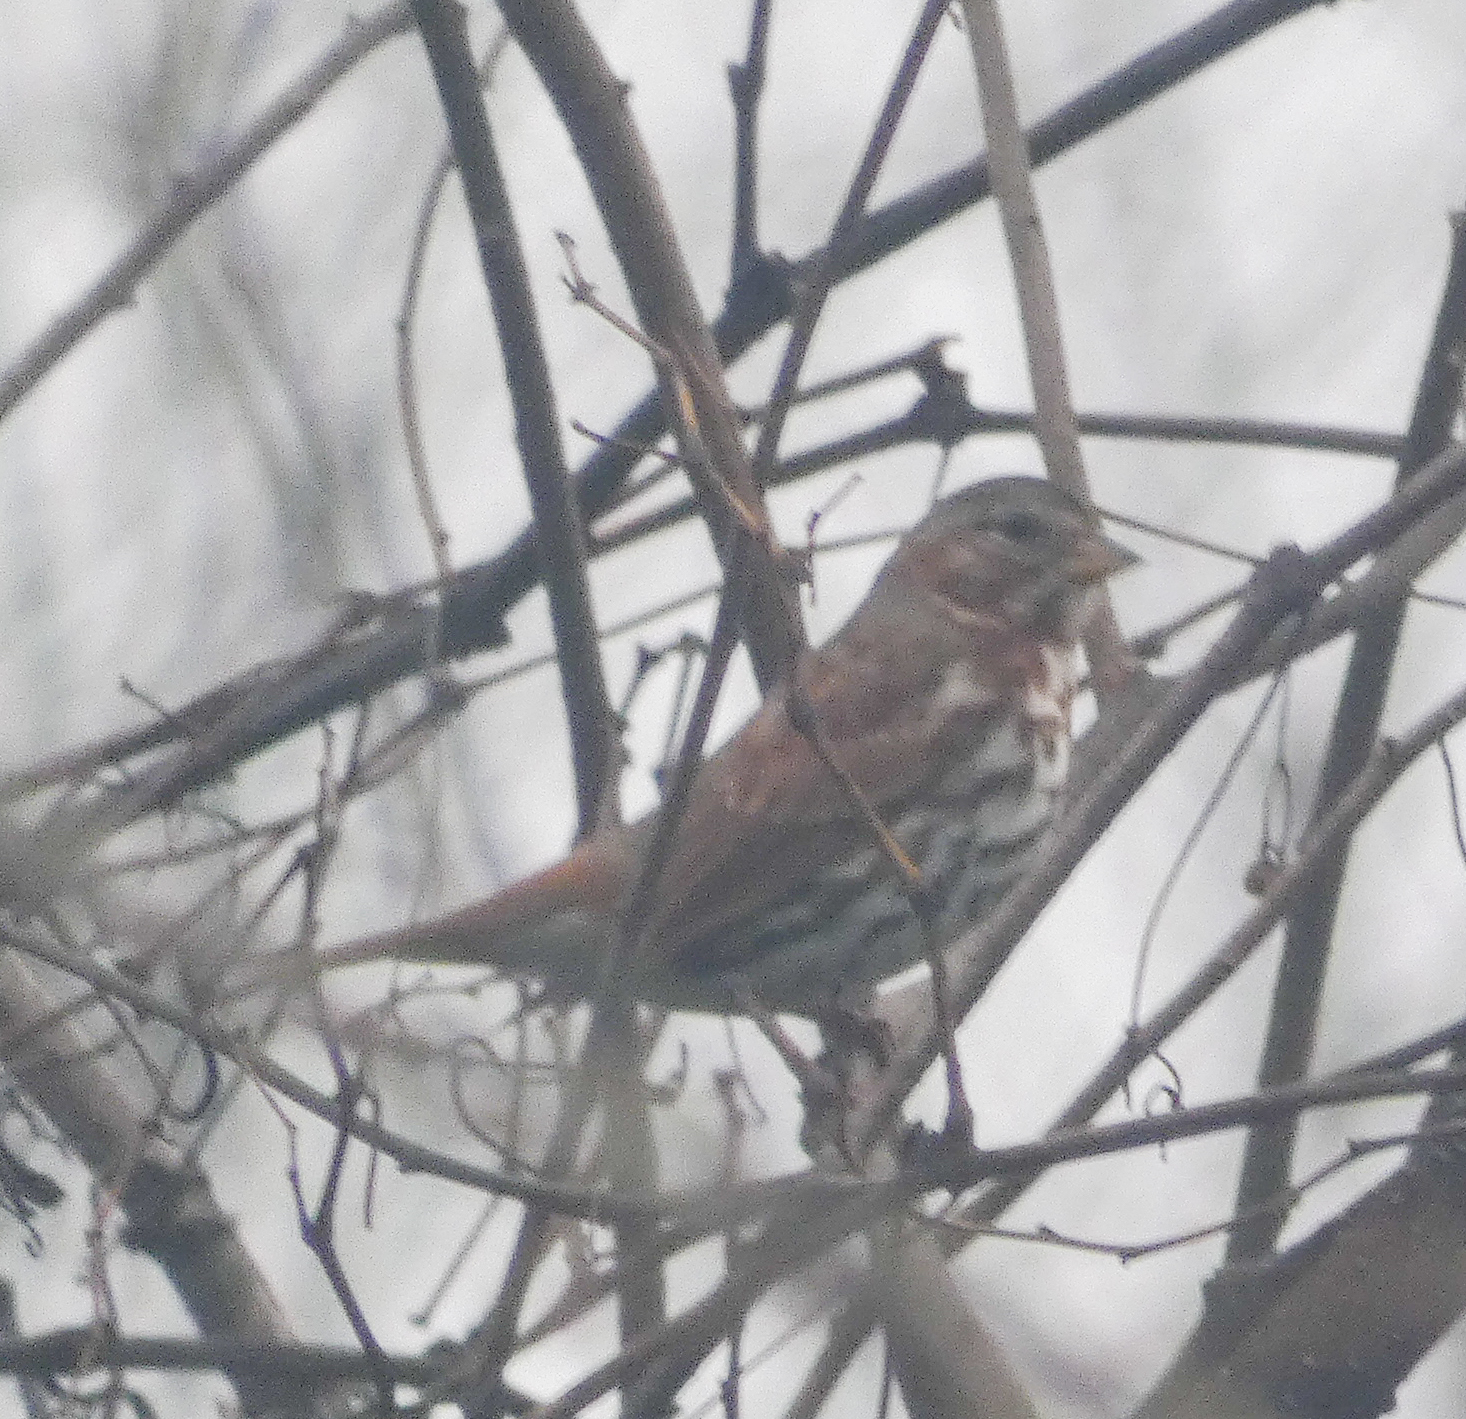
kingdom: Animalia
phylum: Chordata
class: Aves
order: Passeriformes
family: Passerellidae
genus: Passerella
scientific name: Passerella iliaca
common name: Fox sparrow
